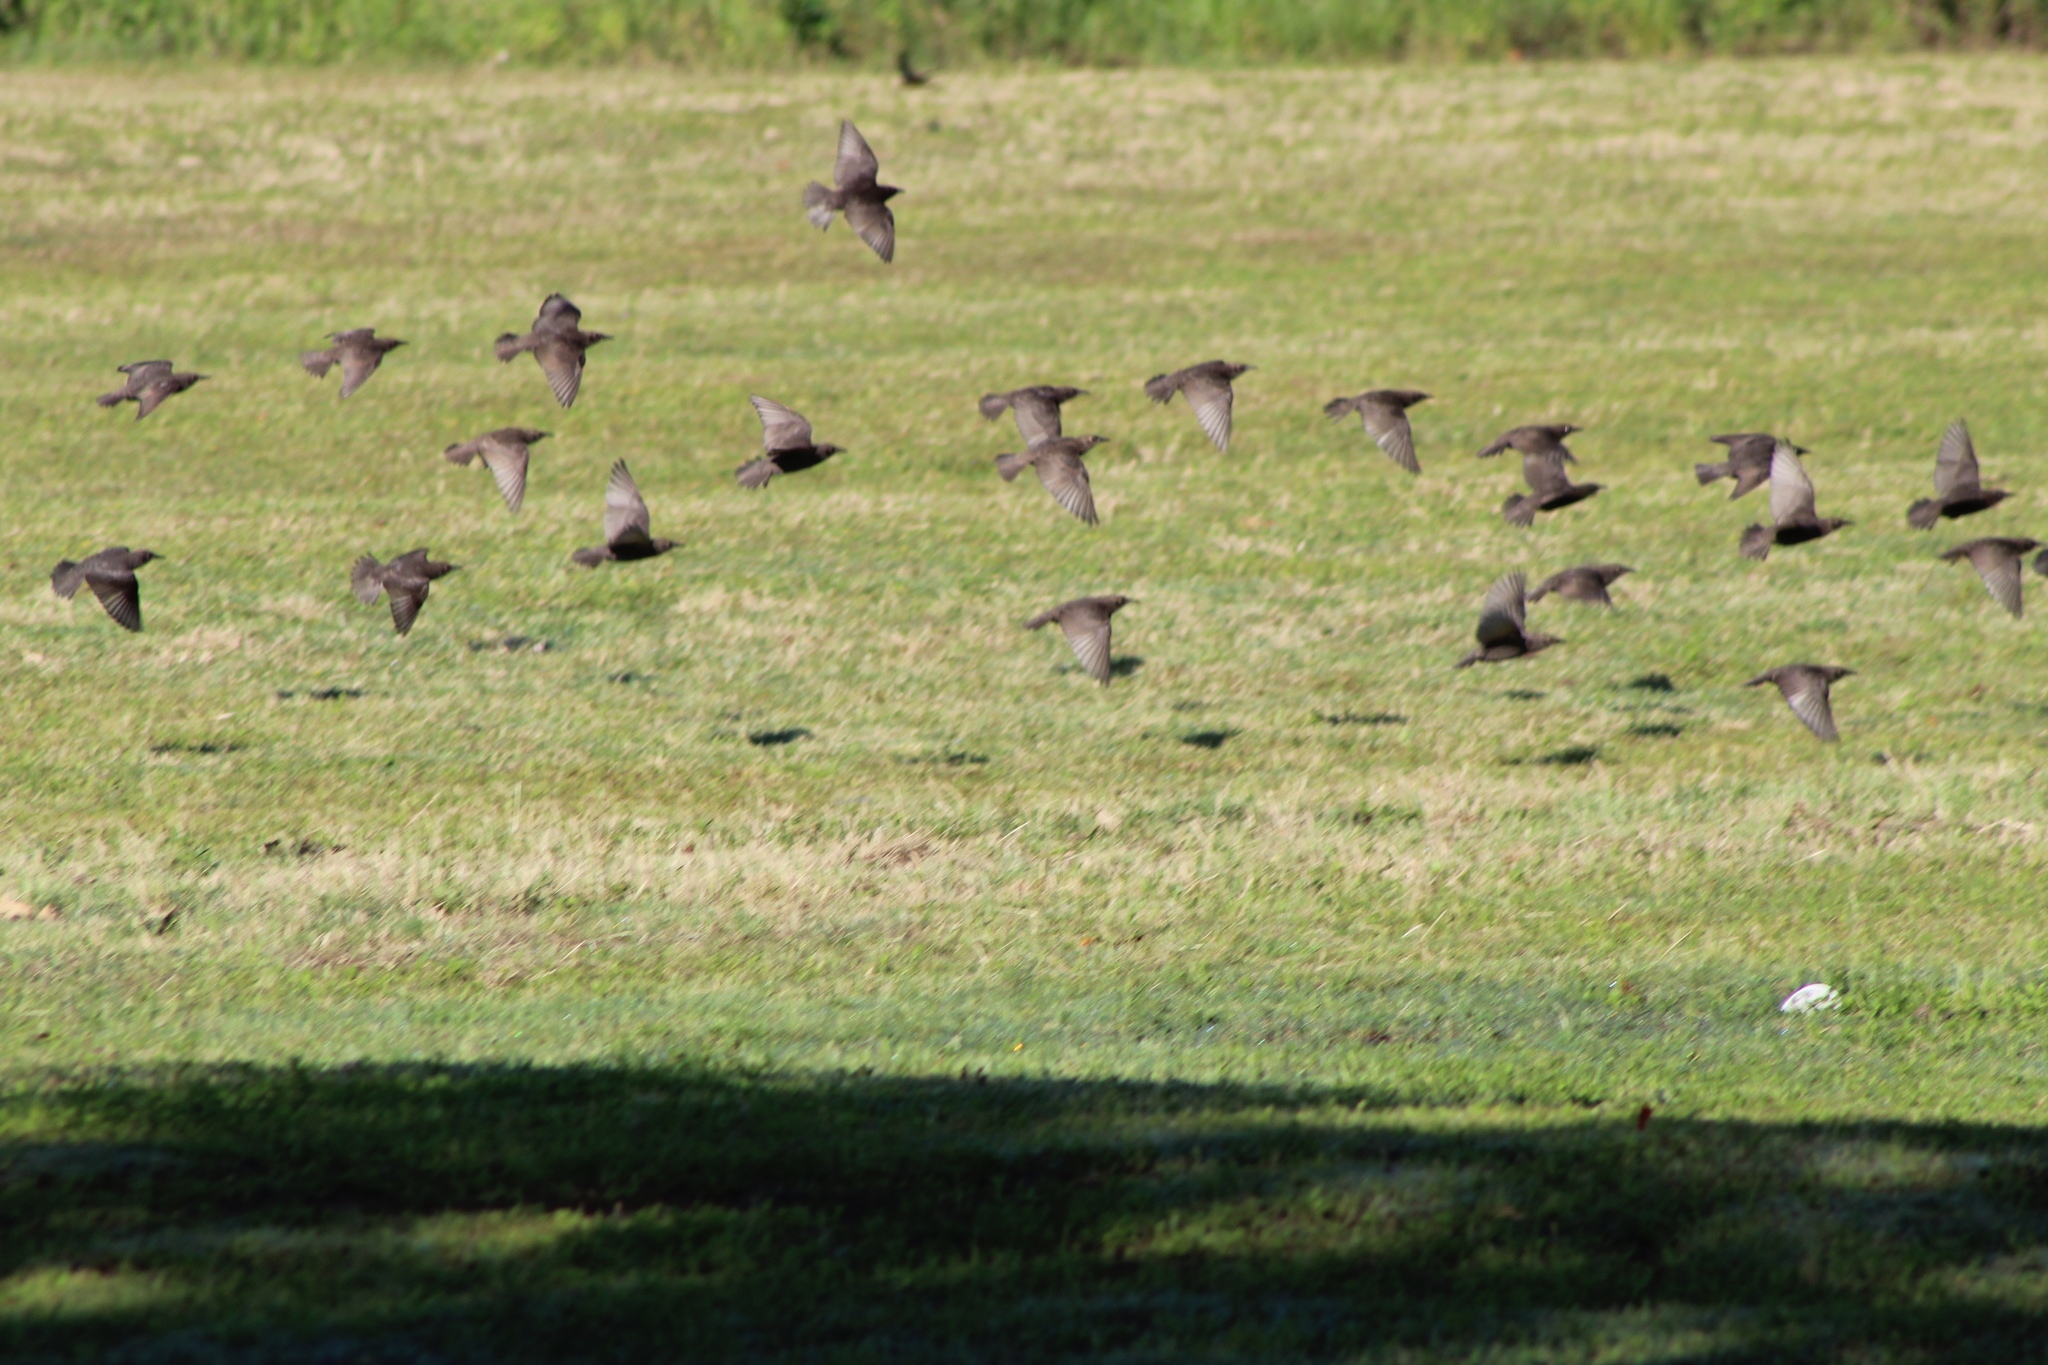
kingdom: Animalia
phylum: Chordata
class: Aves
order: Passeriformes
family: Sturnidae
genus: Sturnus
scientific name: Sturnus vulgaris
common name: Common starling
